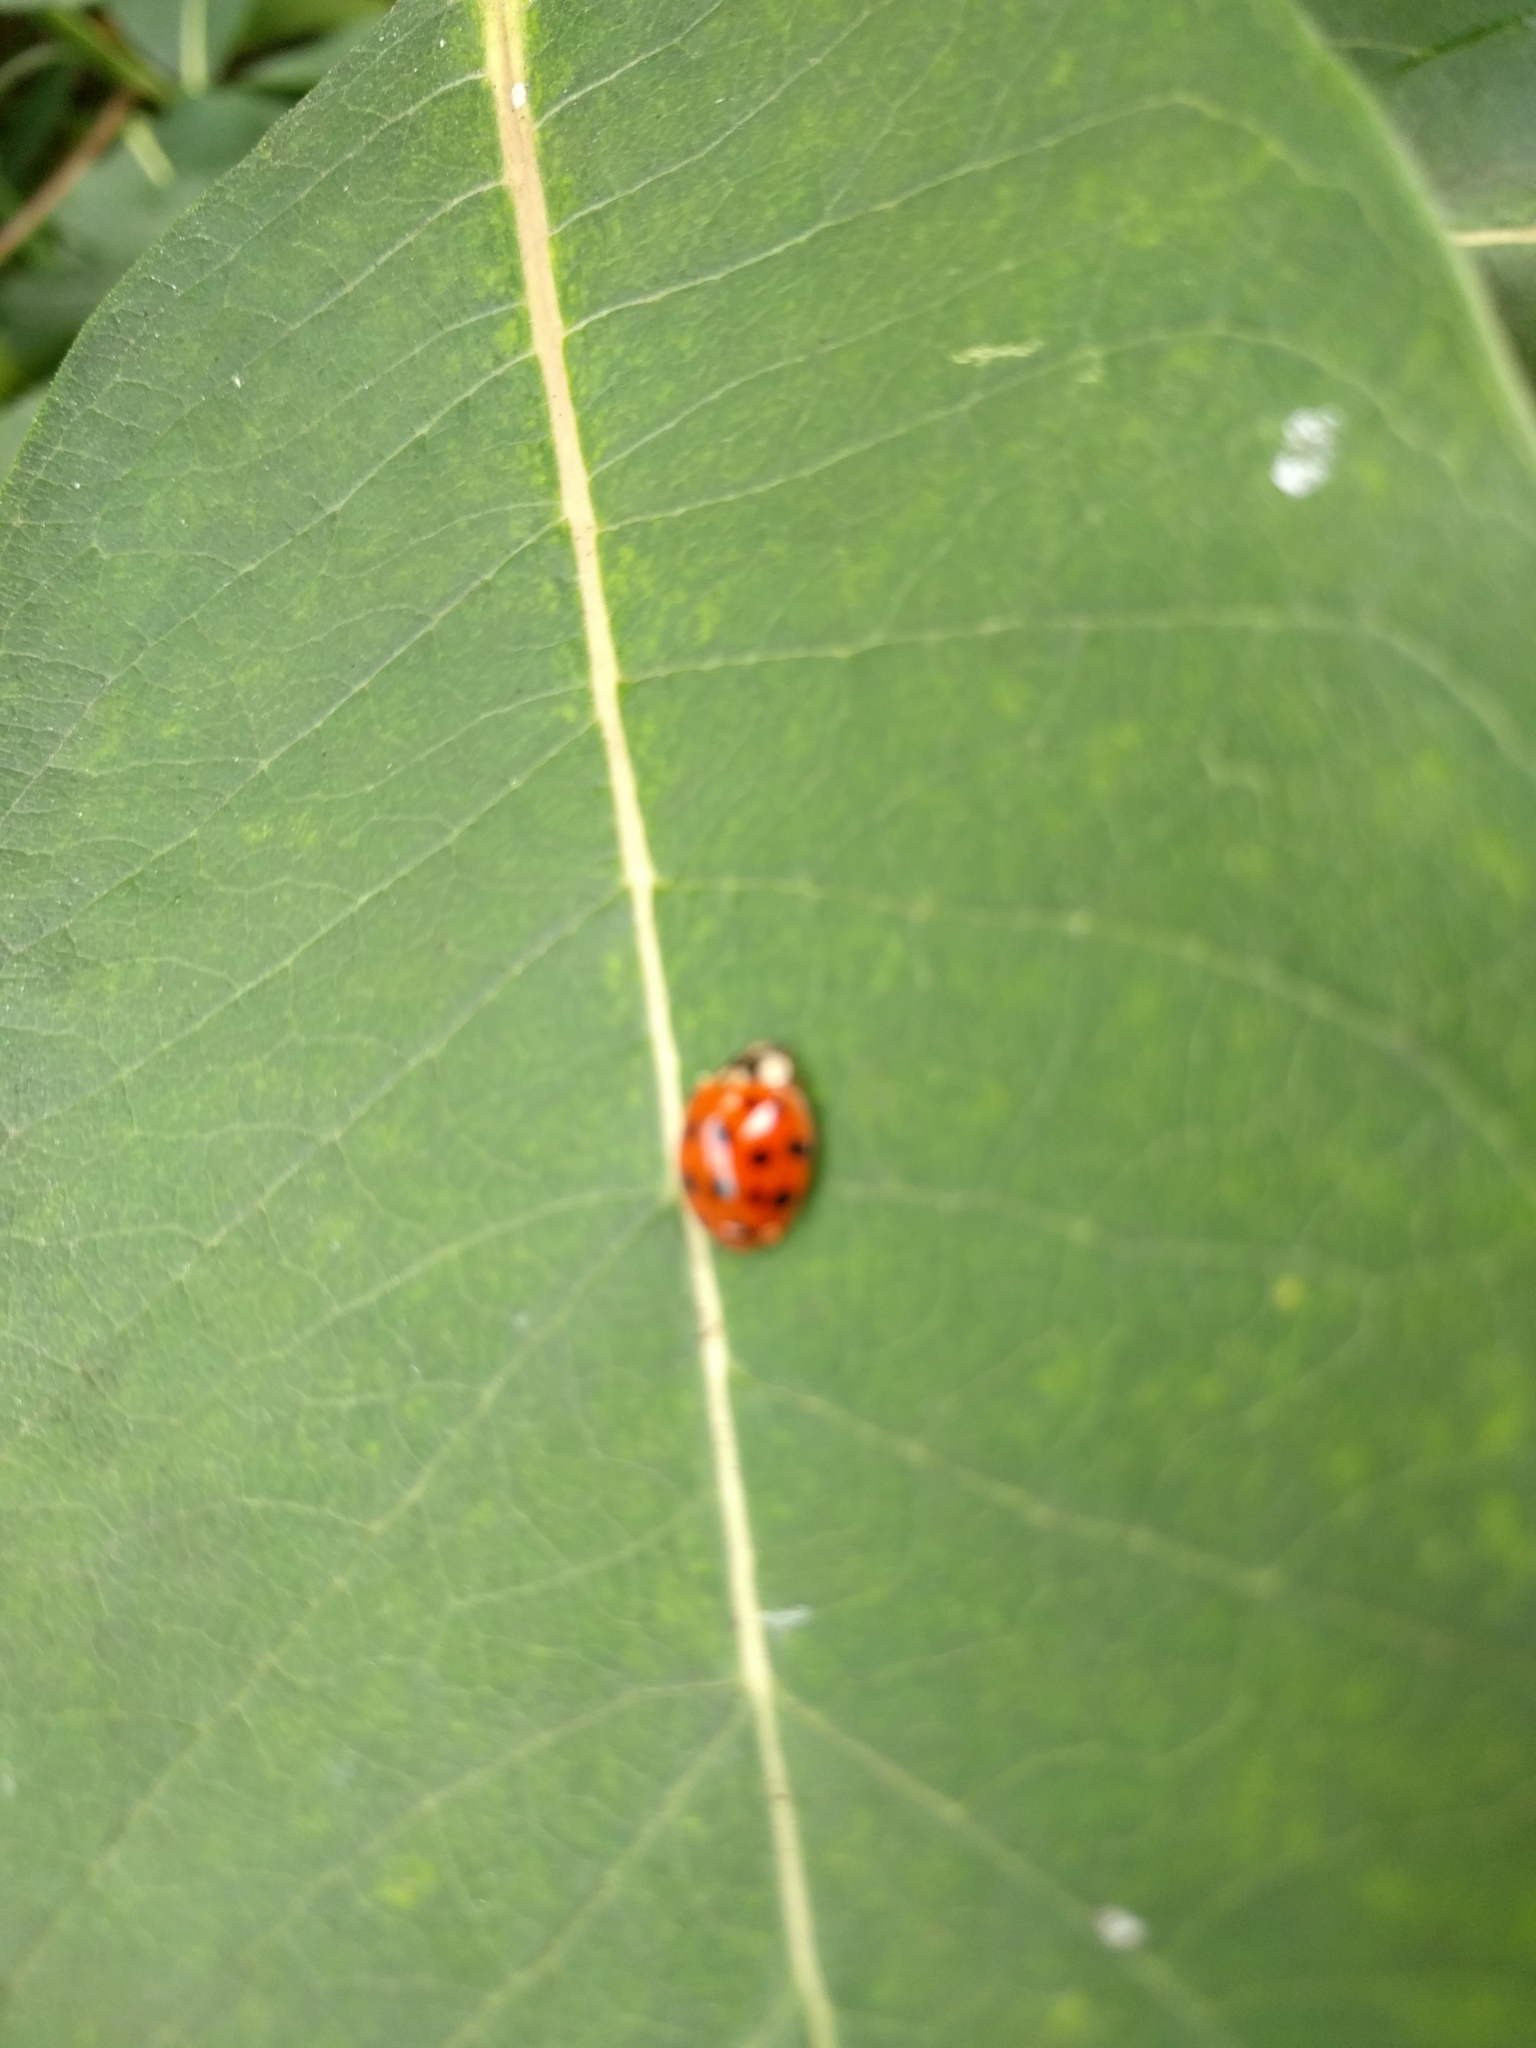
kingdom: Animalia
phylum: Arthropoda
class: Insecta
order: Coleoptera
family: Coccinellidae
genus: Harmonia
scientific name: Harmonia axyridis
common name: Harlequin ladybird
